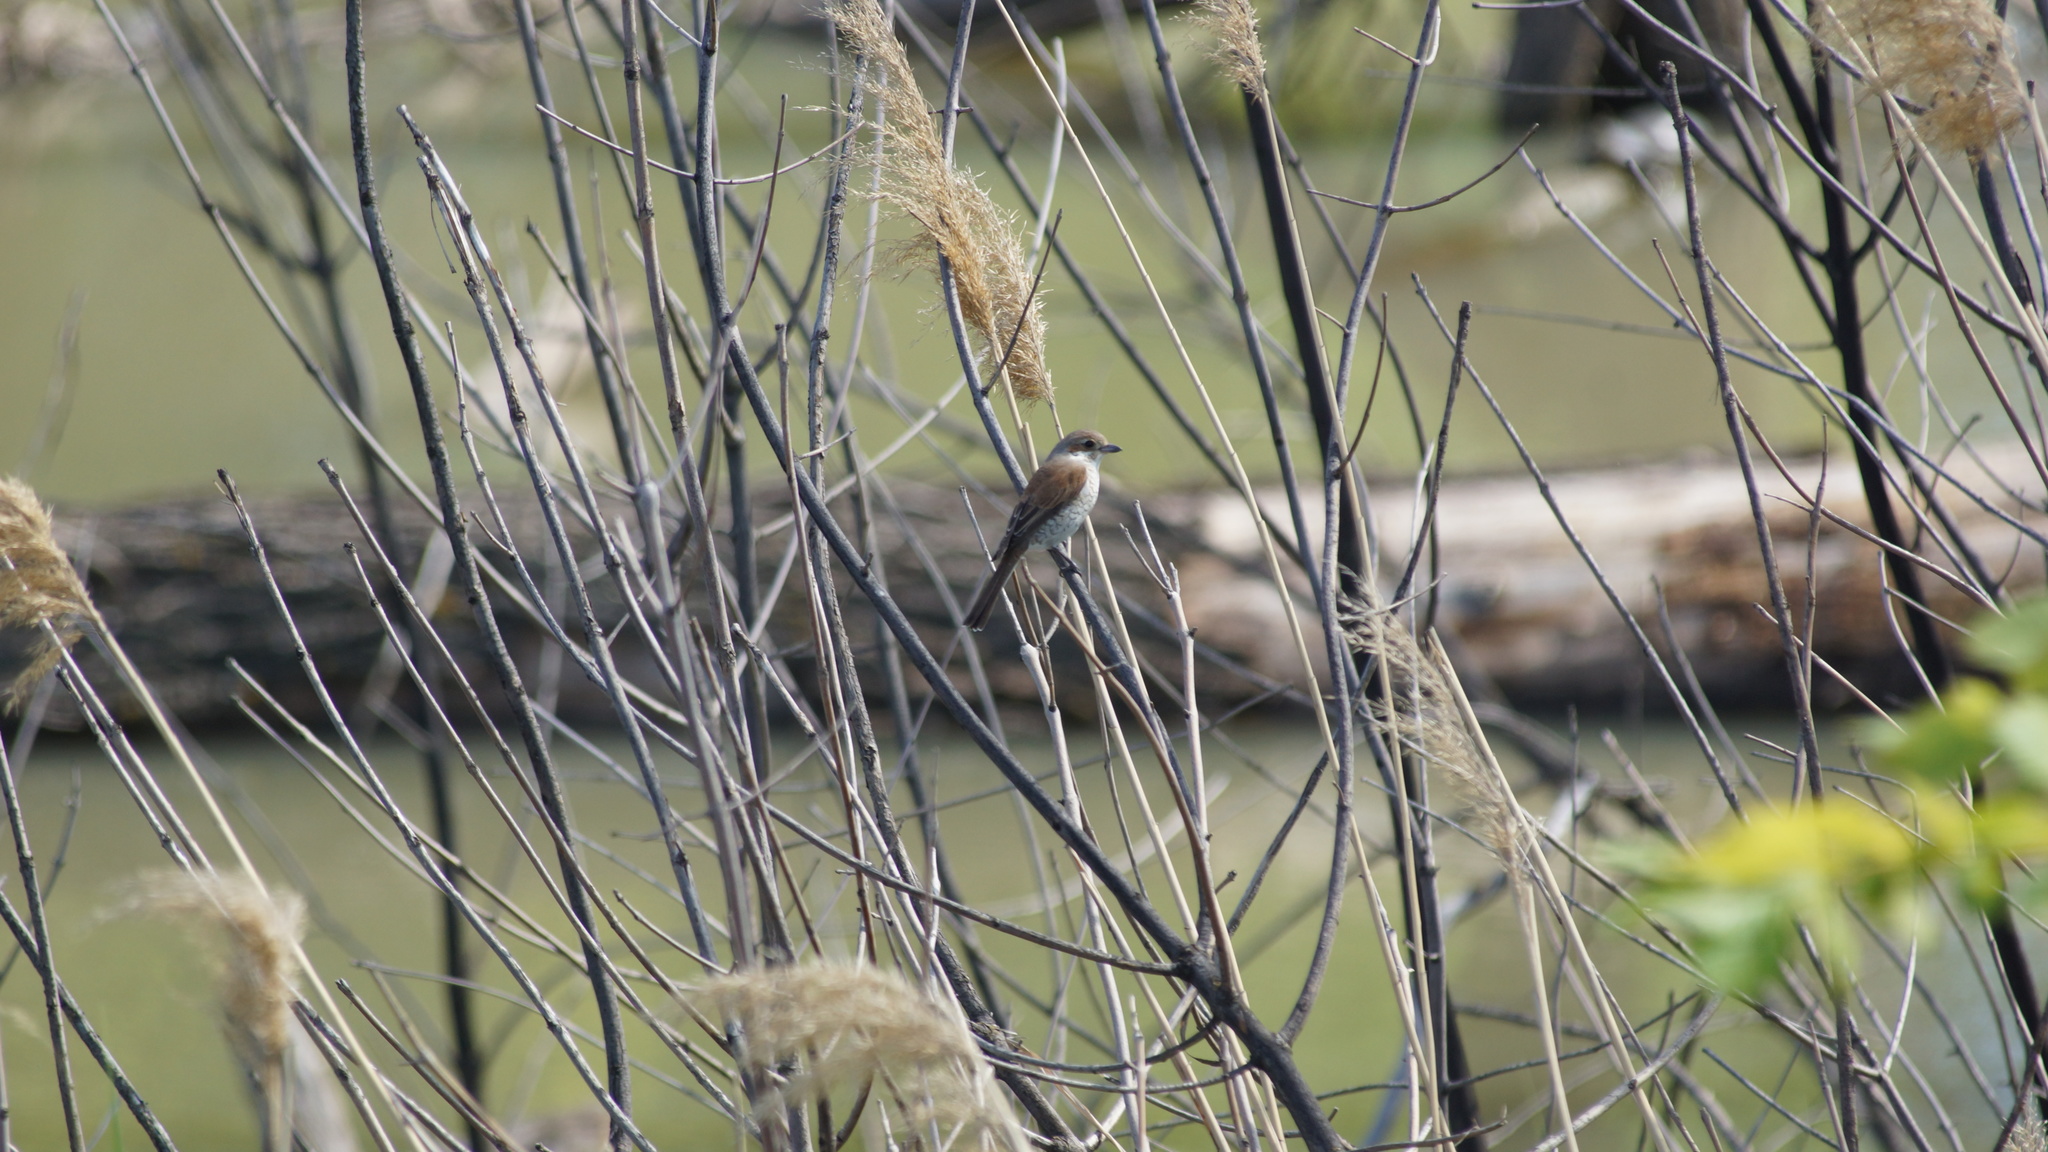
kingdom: Animalia
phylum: Chordata
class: Aves
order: Passeriformes
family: Laniidae
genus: Lanius
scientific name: Lanius collurio
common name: Red-backed shrike
